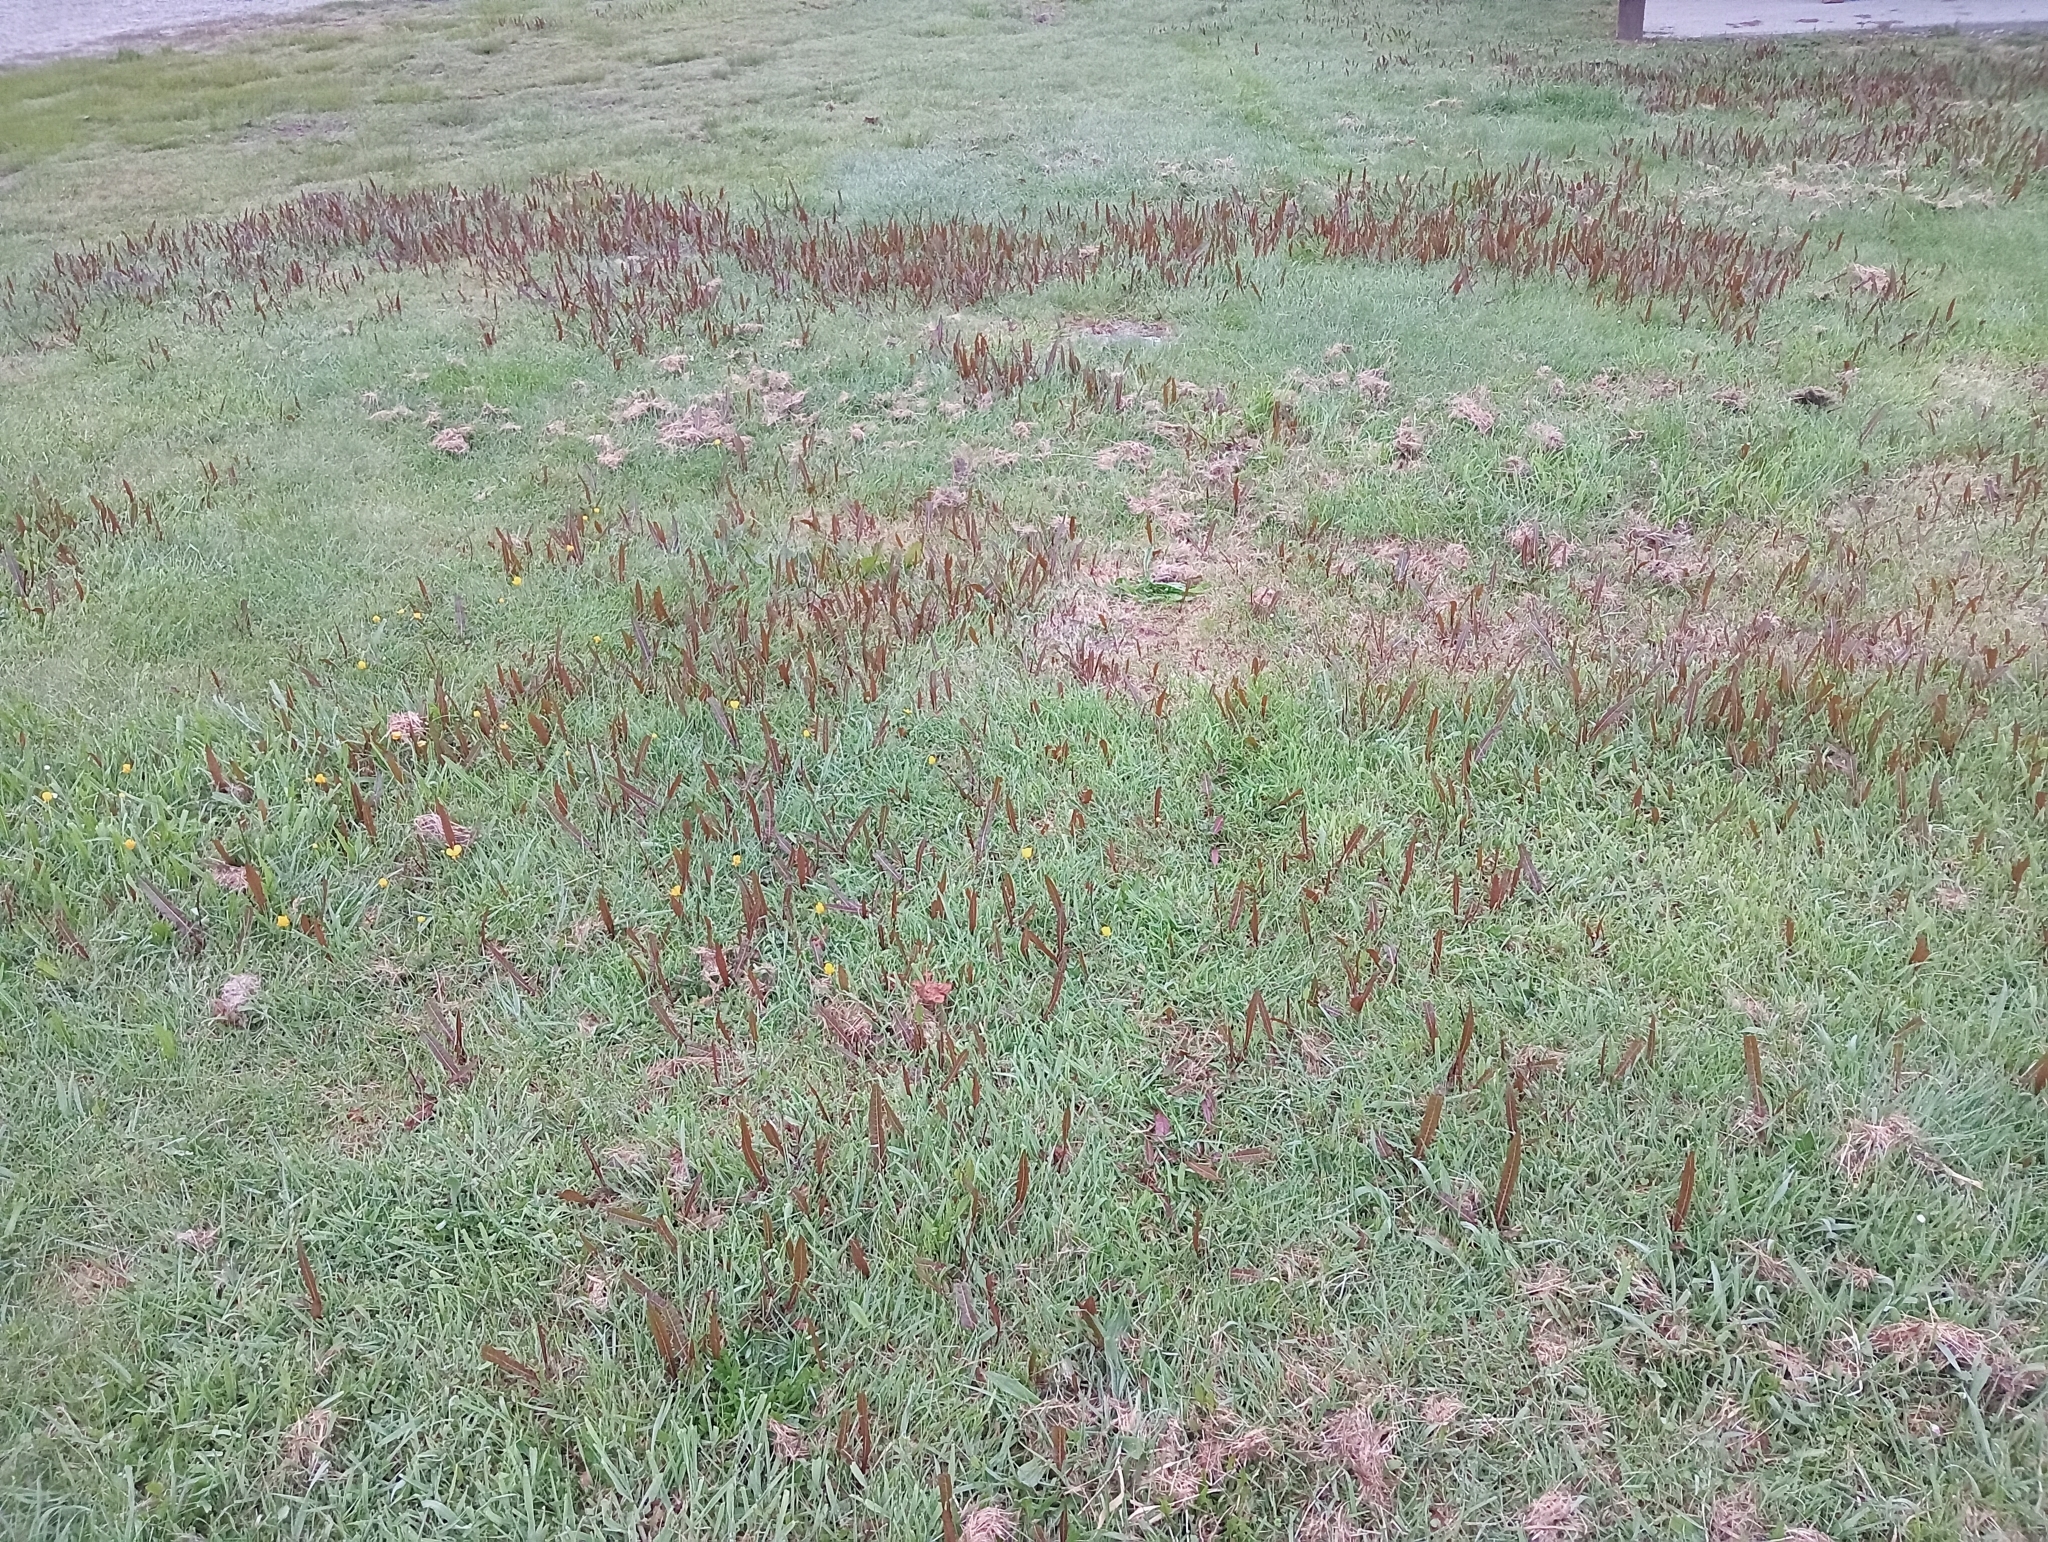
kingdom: Plantae
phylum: Tracheophyta
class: Magnoliopsida
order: Caryophyllales
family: Polygonaceae
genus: Rumex
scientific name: Rumex flexuosus
